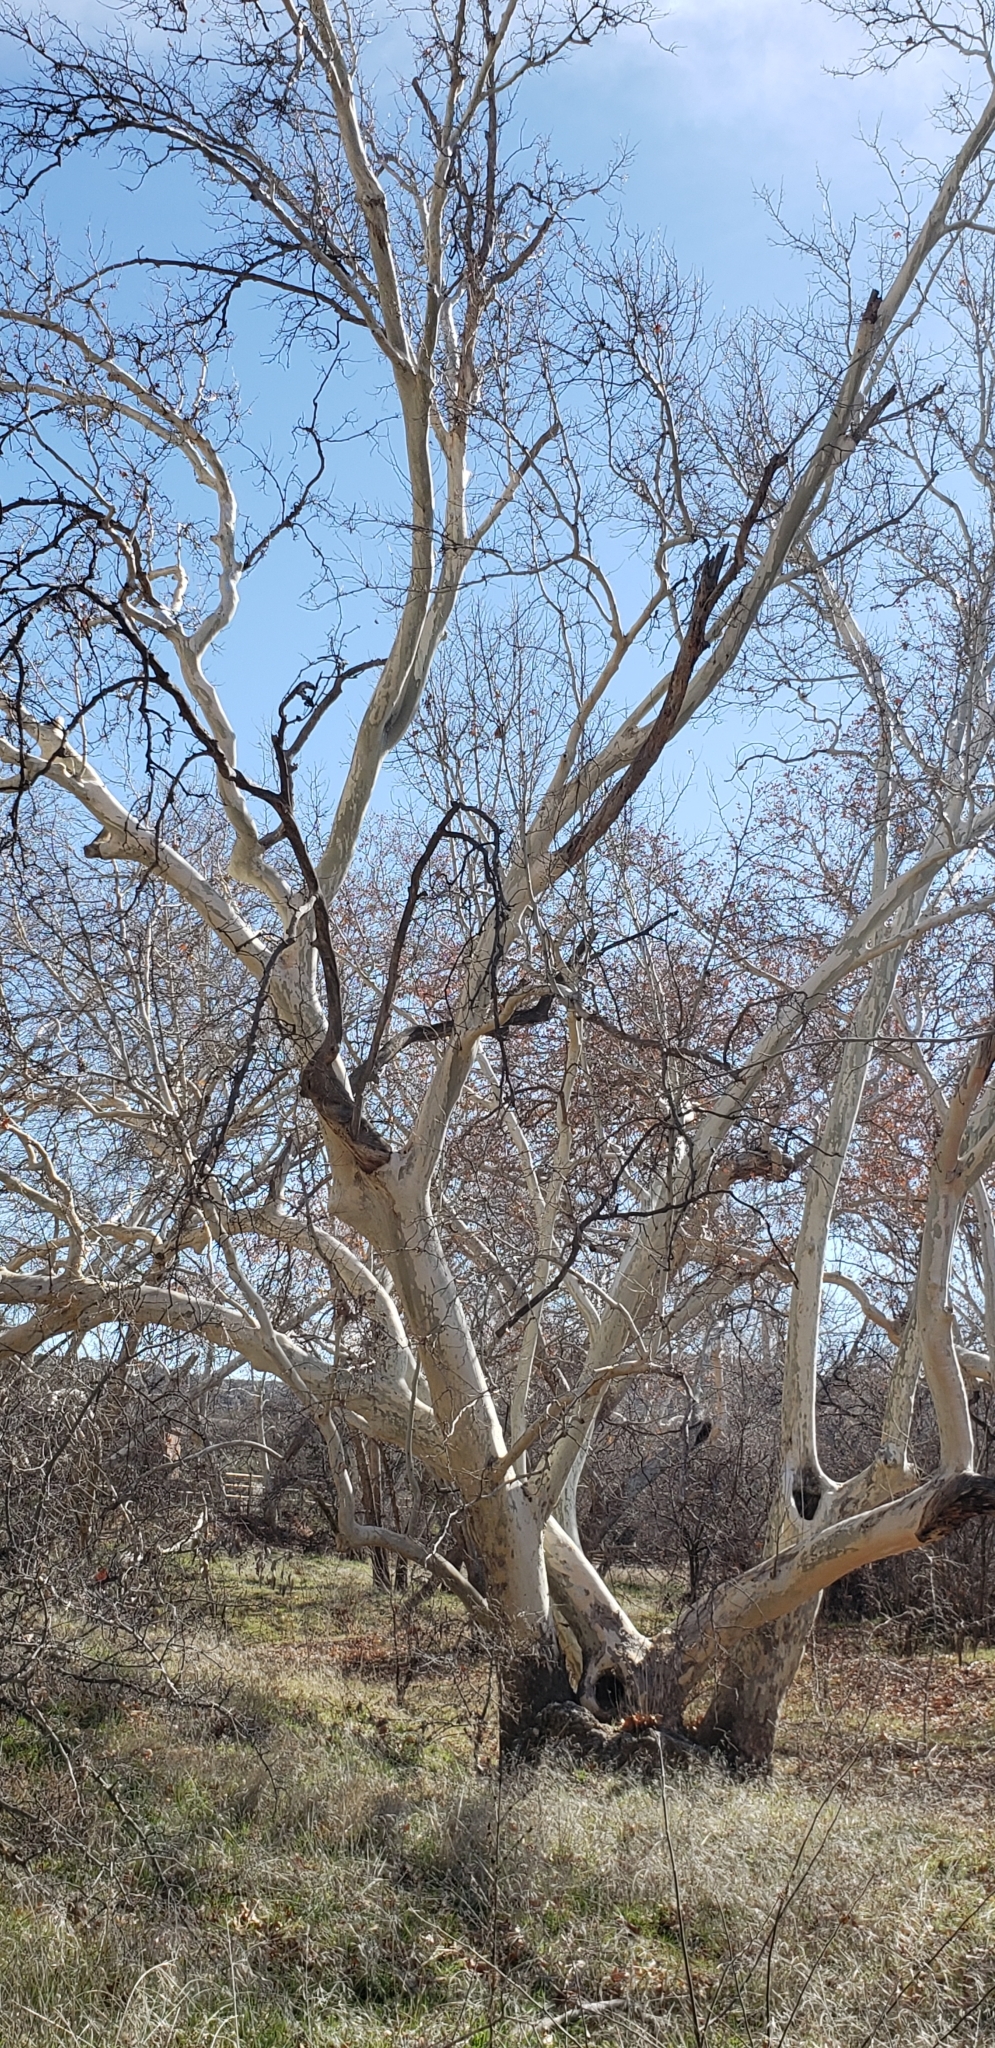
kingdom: Plantae
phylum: Tracheophyta
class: Magnoliopsida
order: Proteales
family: Platanaceae
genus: Platanus
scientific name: Platanus wrightii
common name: Arizona sycamore
